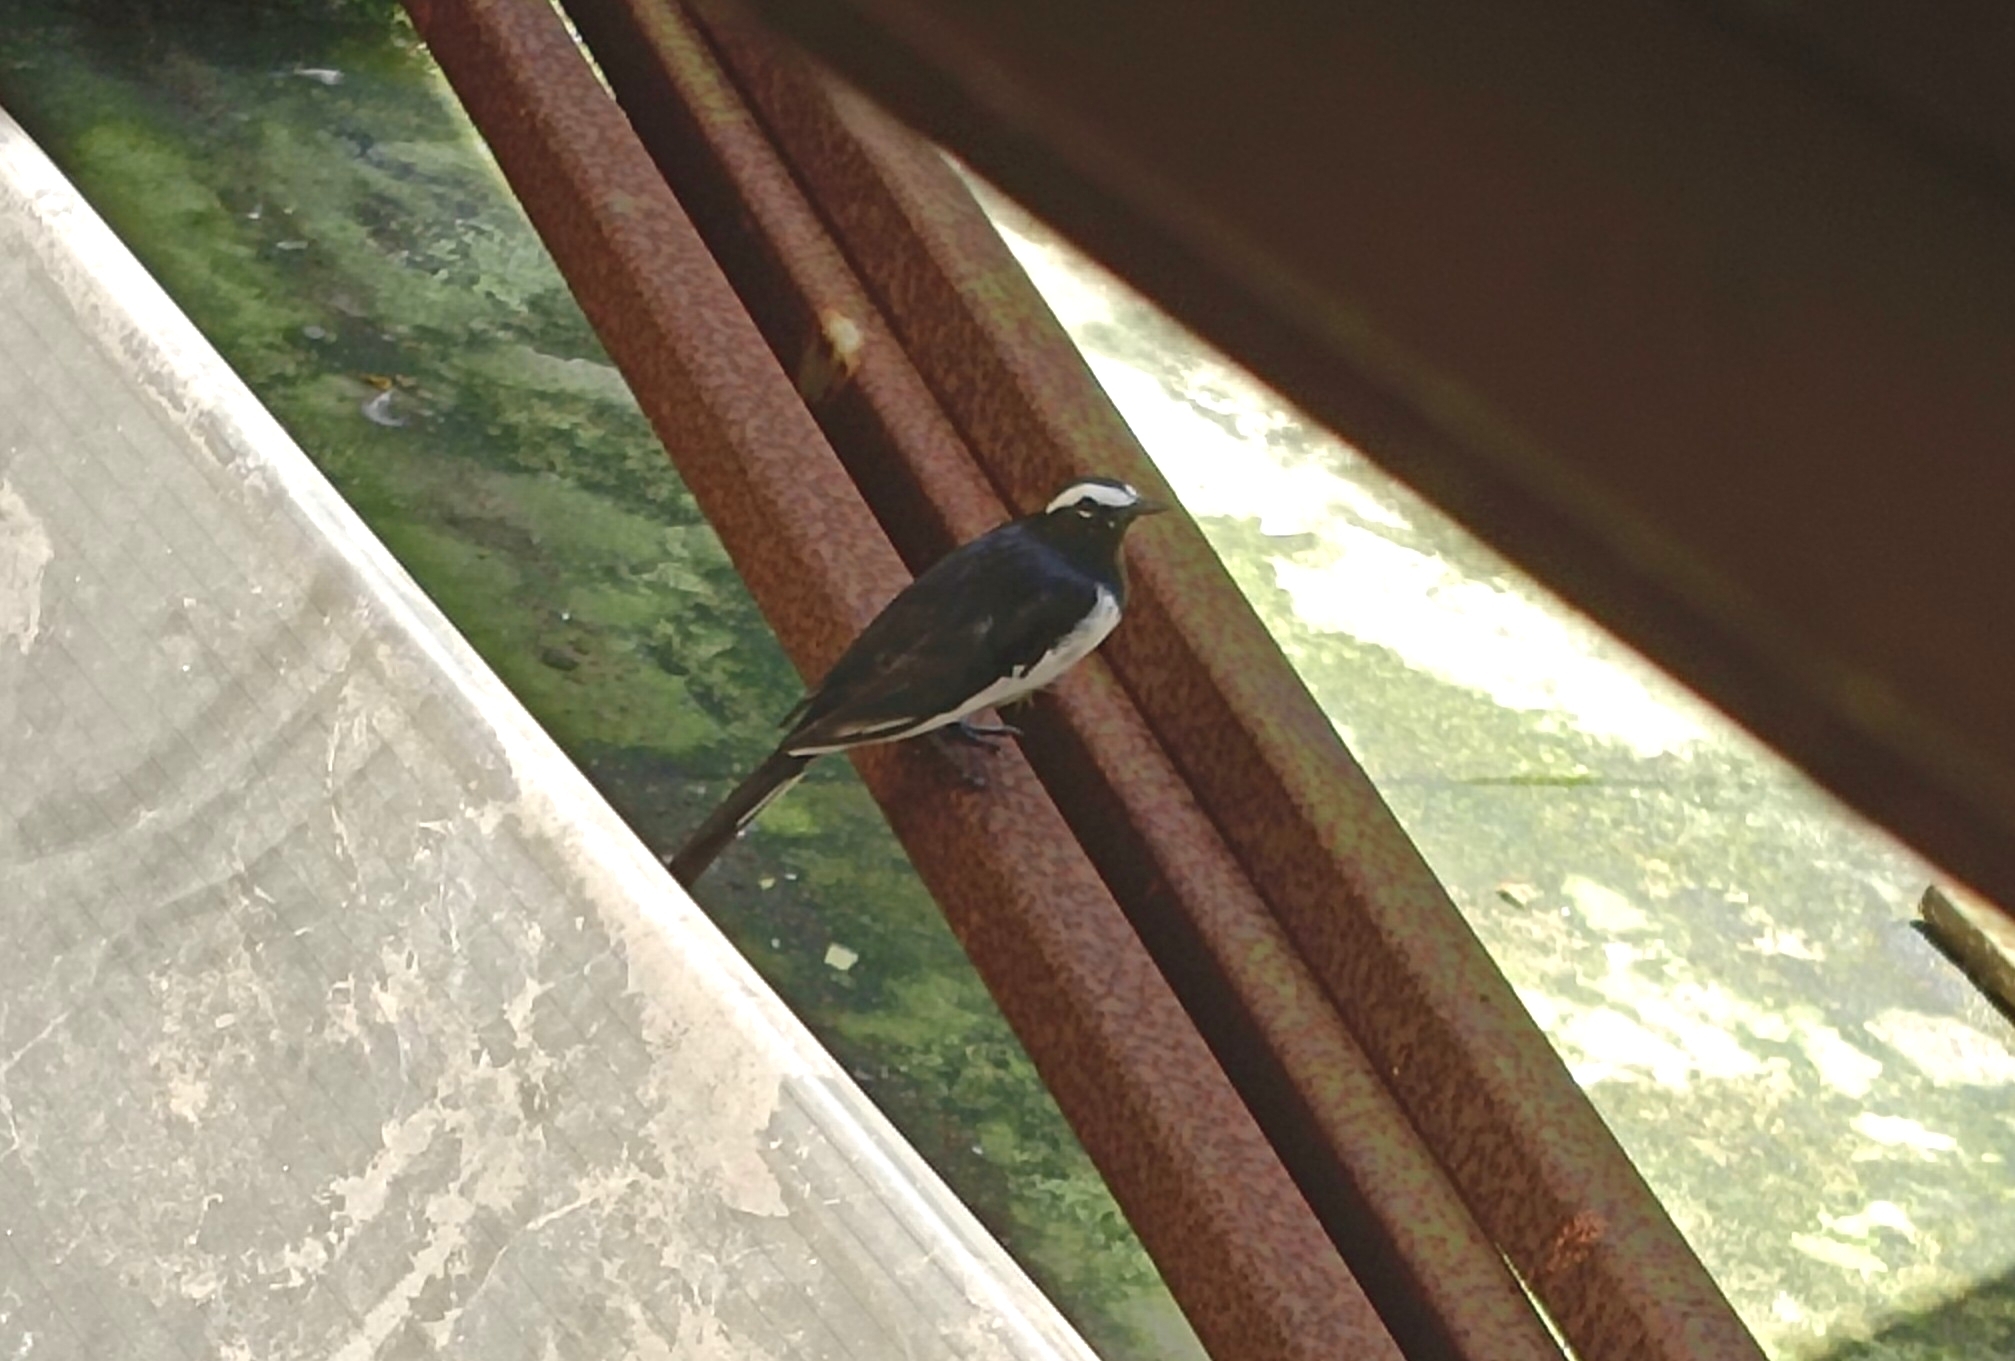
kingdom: Animalia
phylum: Chordata
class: Aves
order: Passeriformes
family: Motacillidae
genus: Motacilla
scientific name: Motacilla maderaspatensis
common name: White-browed wagtail
